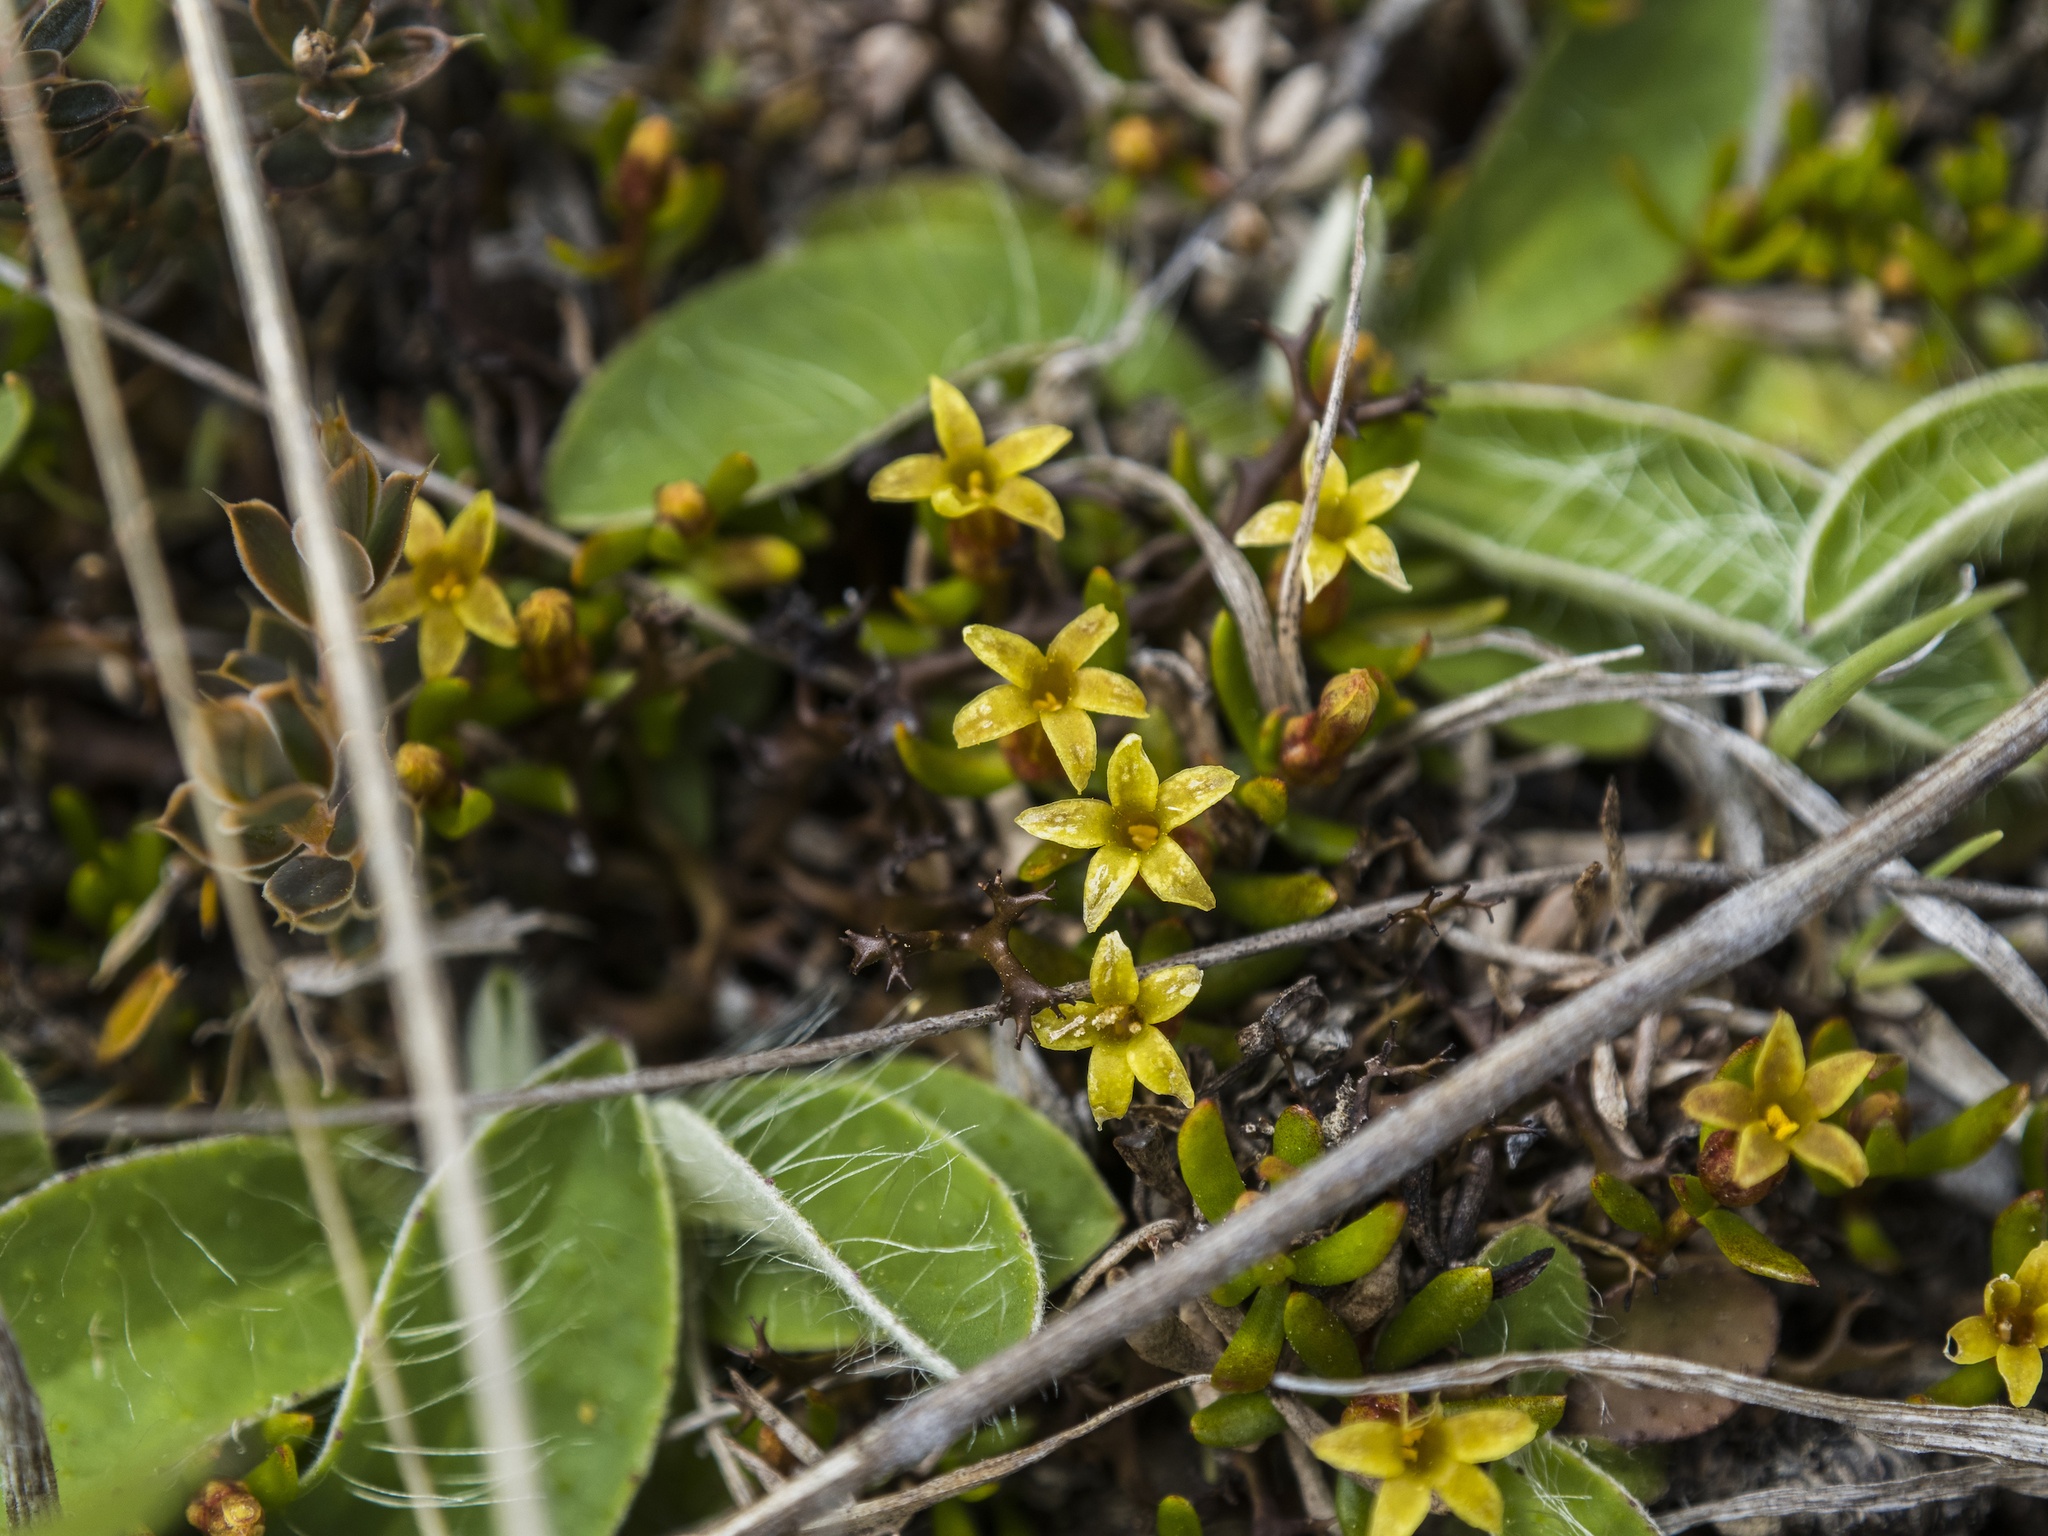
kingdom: Plantae
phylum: Tracheophyta
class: Magnoliopsida
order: Celastrales
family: Celastraceae
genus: Stackhousia
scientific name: Stackhousia minima
